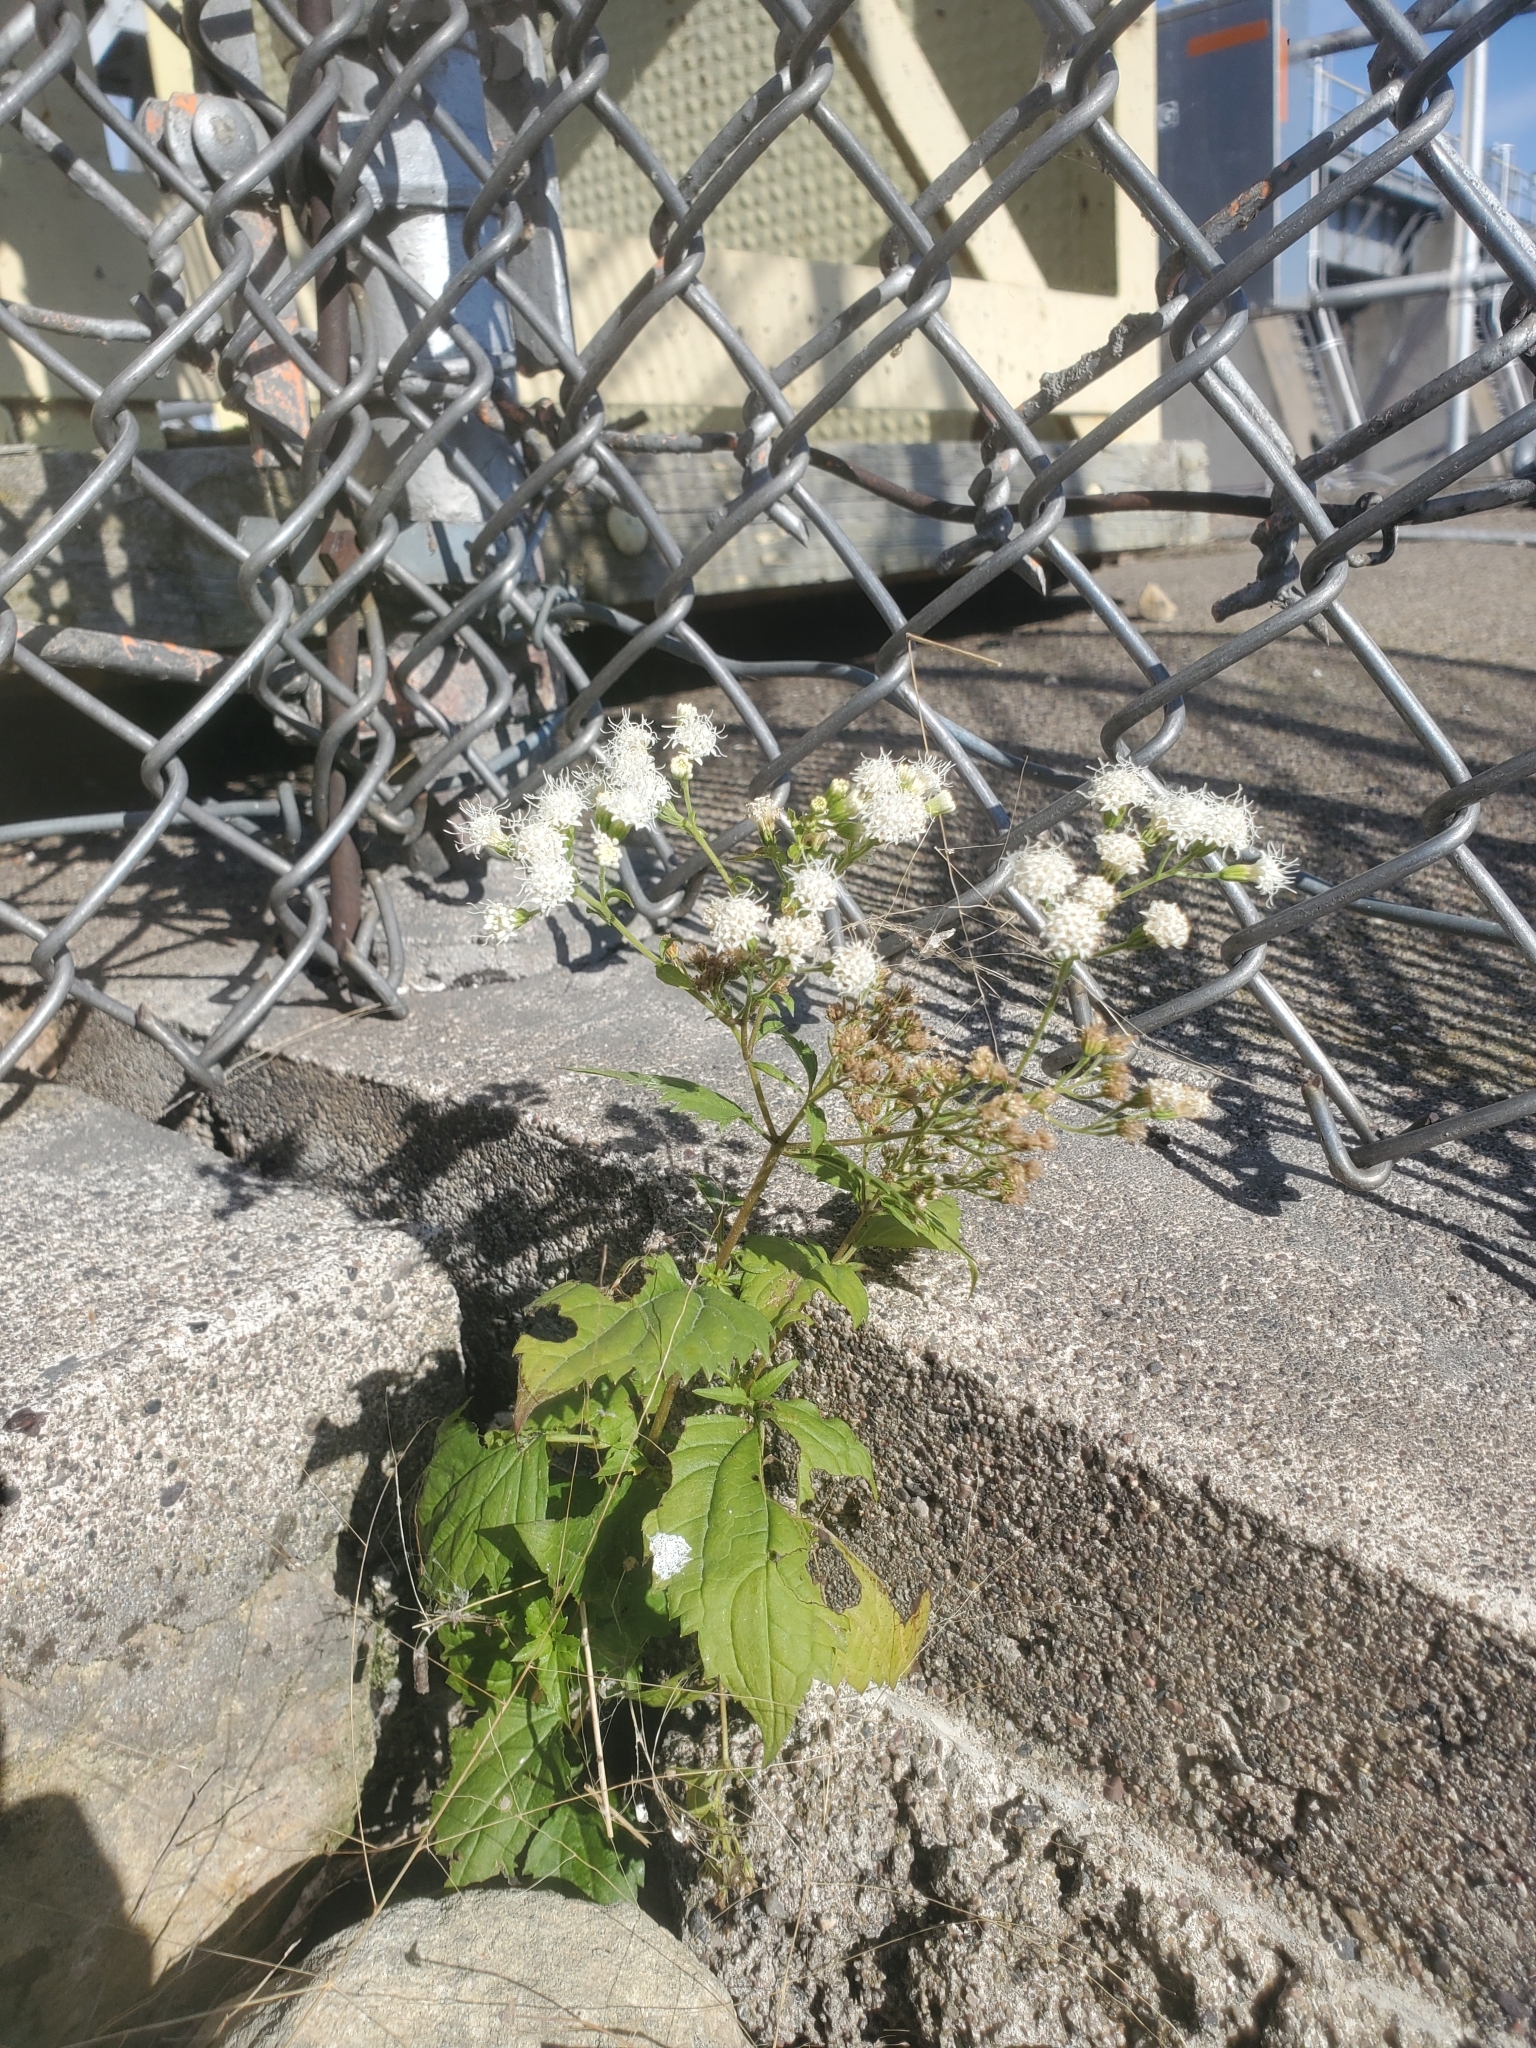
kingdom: Plantae
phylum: Tracheophyta
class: Magnoliopsida
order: Asterales
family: Asteraceae
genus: Ageratina
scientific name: Ageratina altissima
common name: White snakeroot
